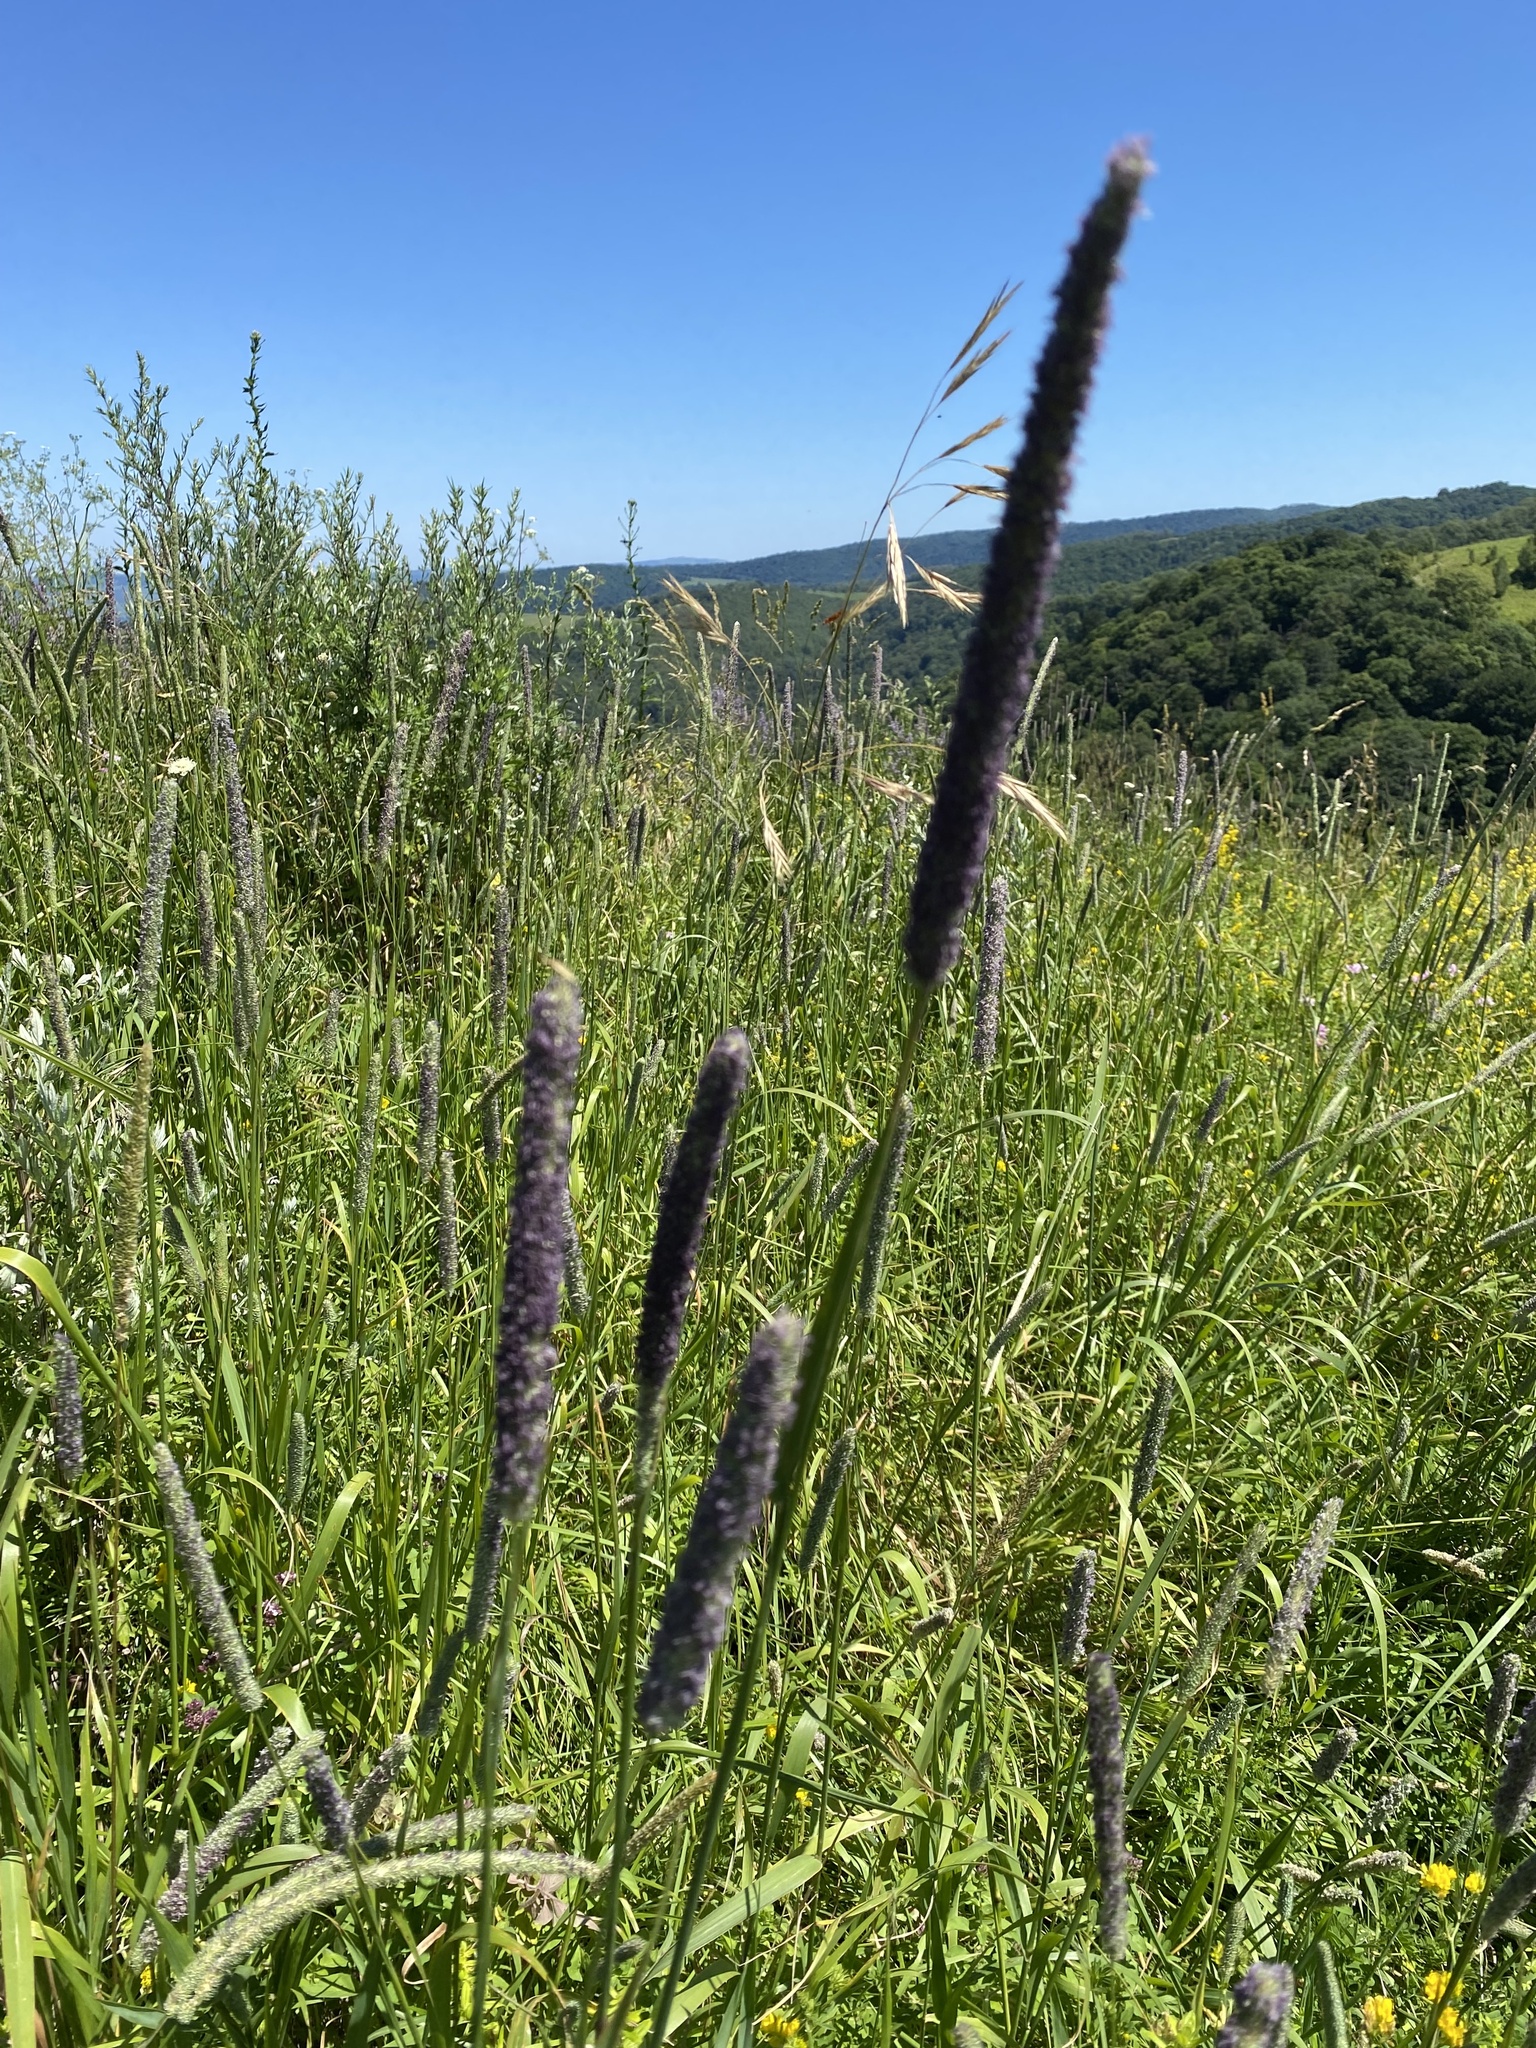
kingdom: Plantae
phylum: Tracheophyta
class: Liliopsida
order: Poales
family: Poaceae
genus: Phleum
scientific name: Phleum pratense
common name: Timothy grass
